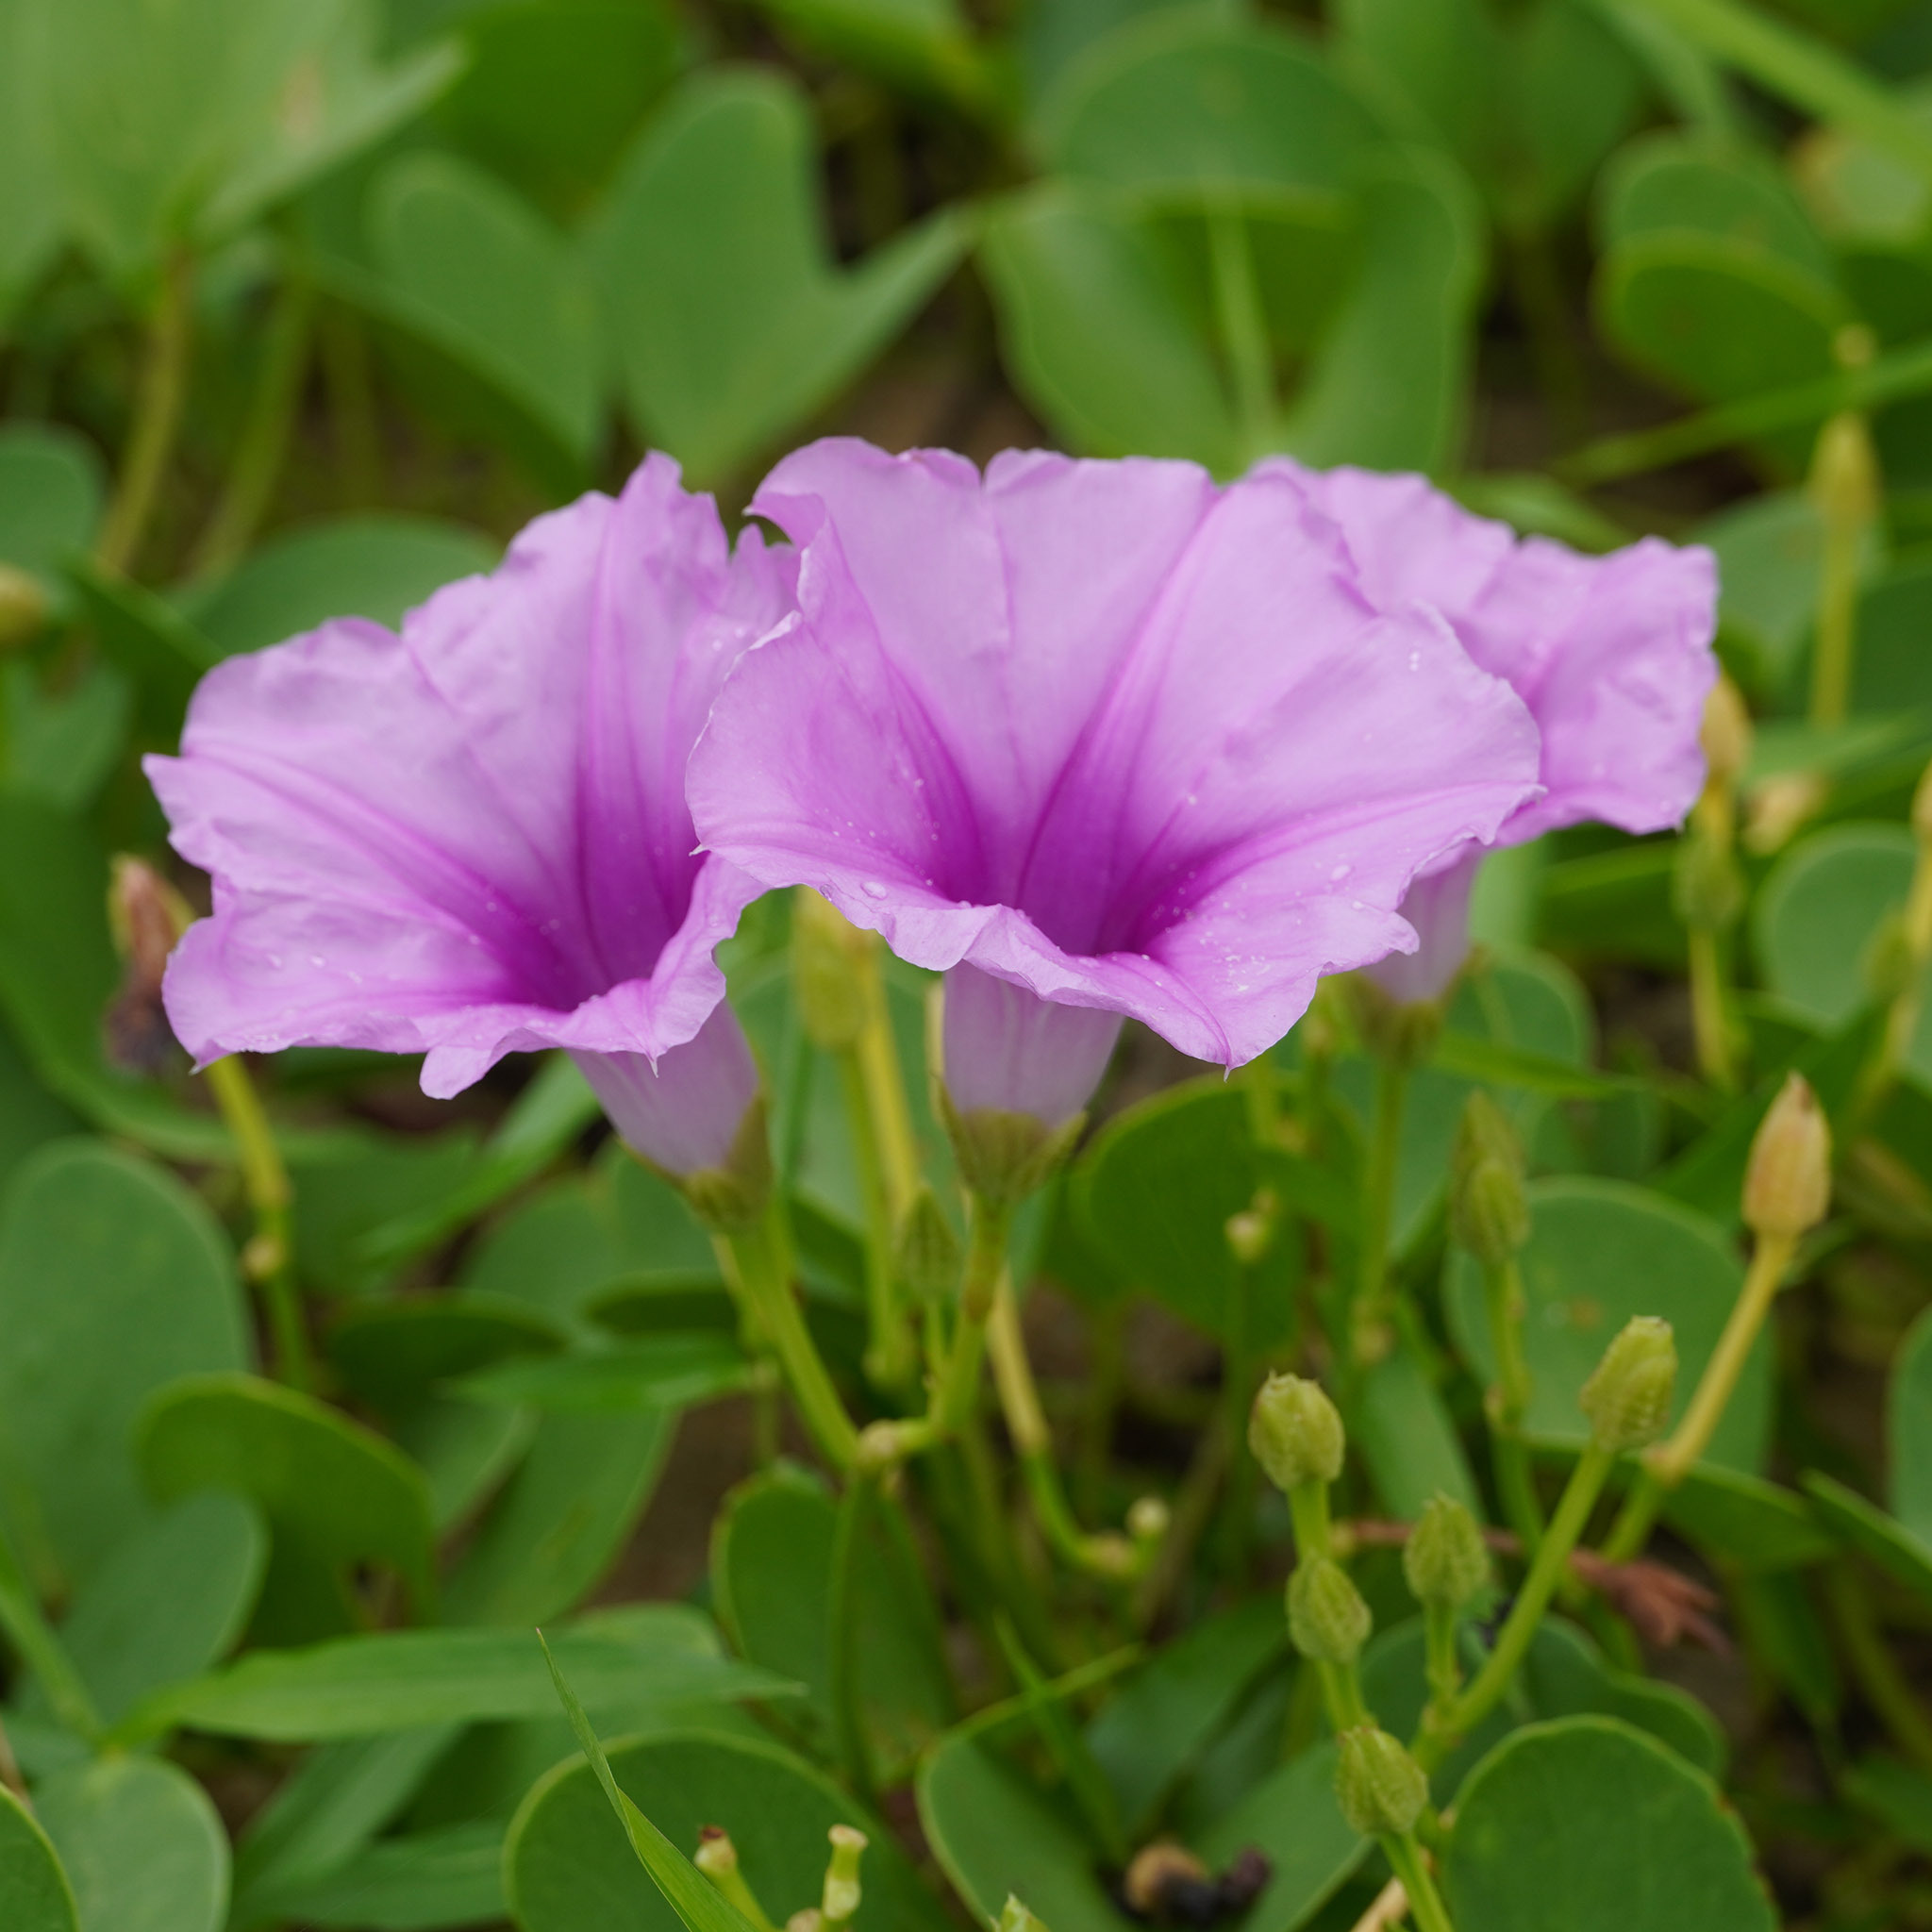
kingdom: Plantae
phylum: Tracheophyta
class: Magnoliopsida
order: Solanales
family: Convolvulaceae
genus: Ipomoea
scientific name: Ipomoea pes-caprae
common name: Beach morning glory
